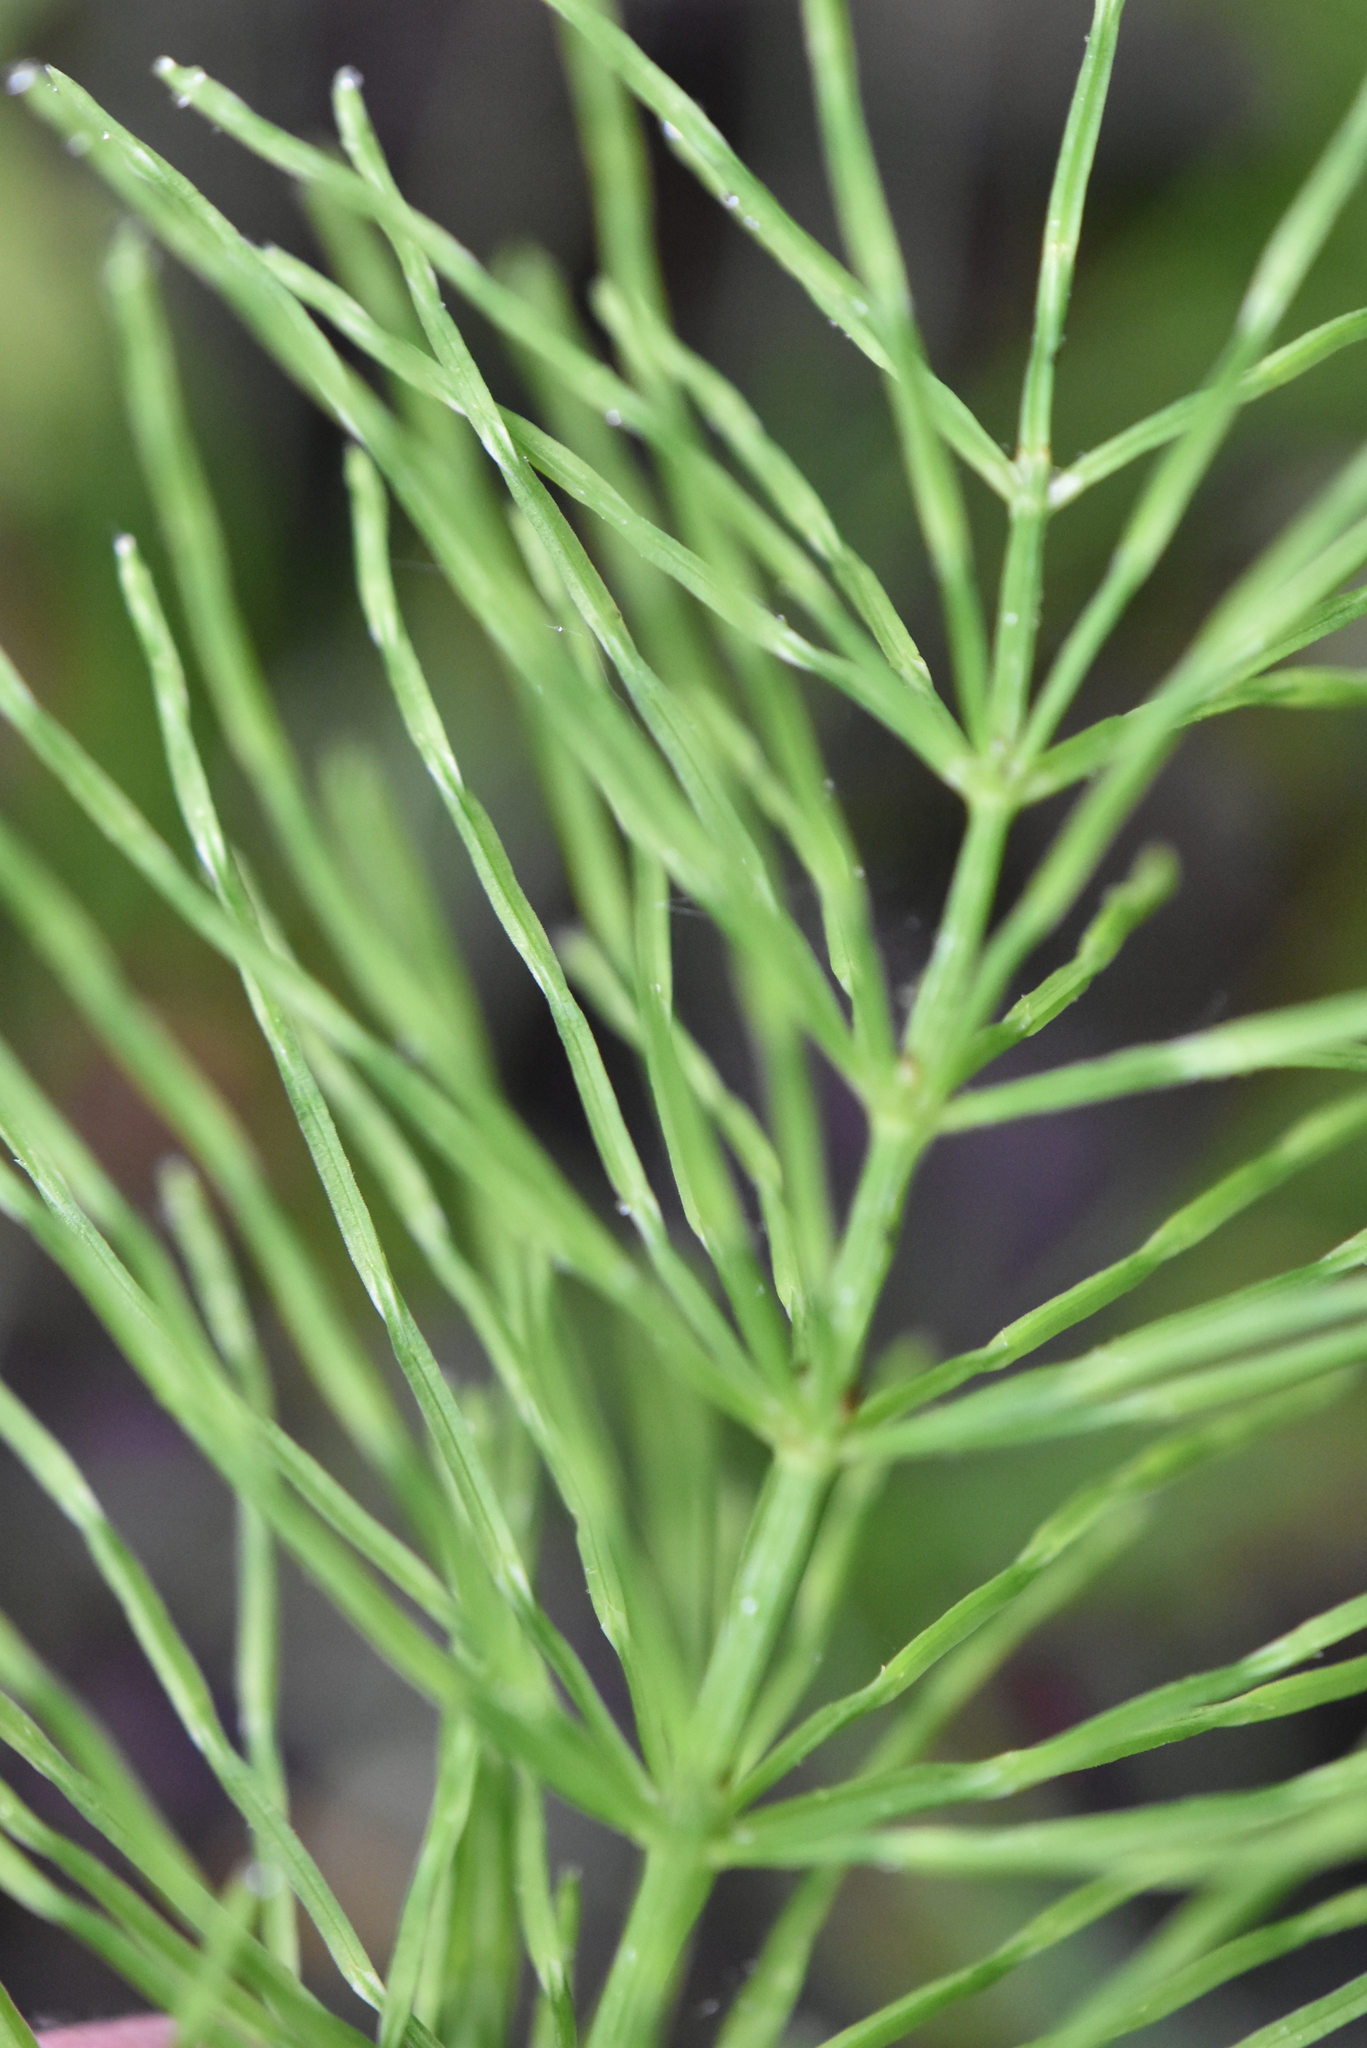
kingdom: Plantae
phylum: Tracheophyta
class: Polypodiopsida
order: Equisetales
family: Equisetaceae
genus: Equisetum
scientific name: Equisetum arvense
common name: Field horsetail
